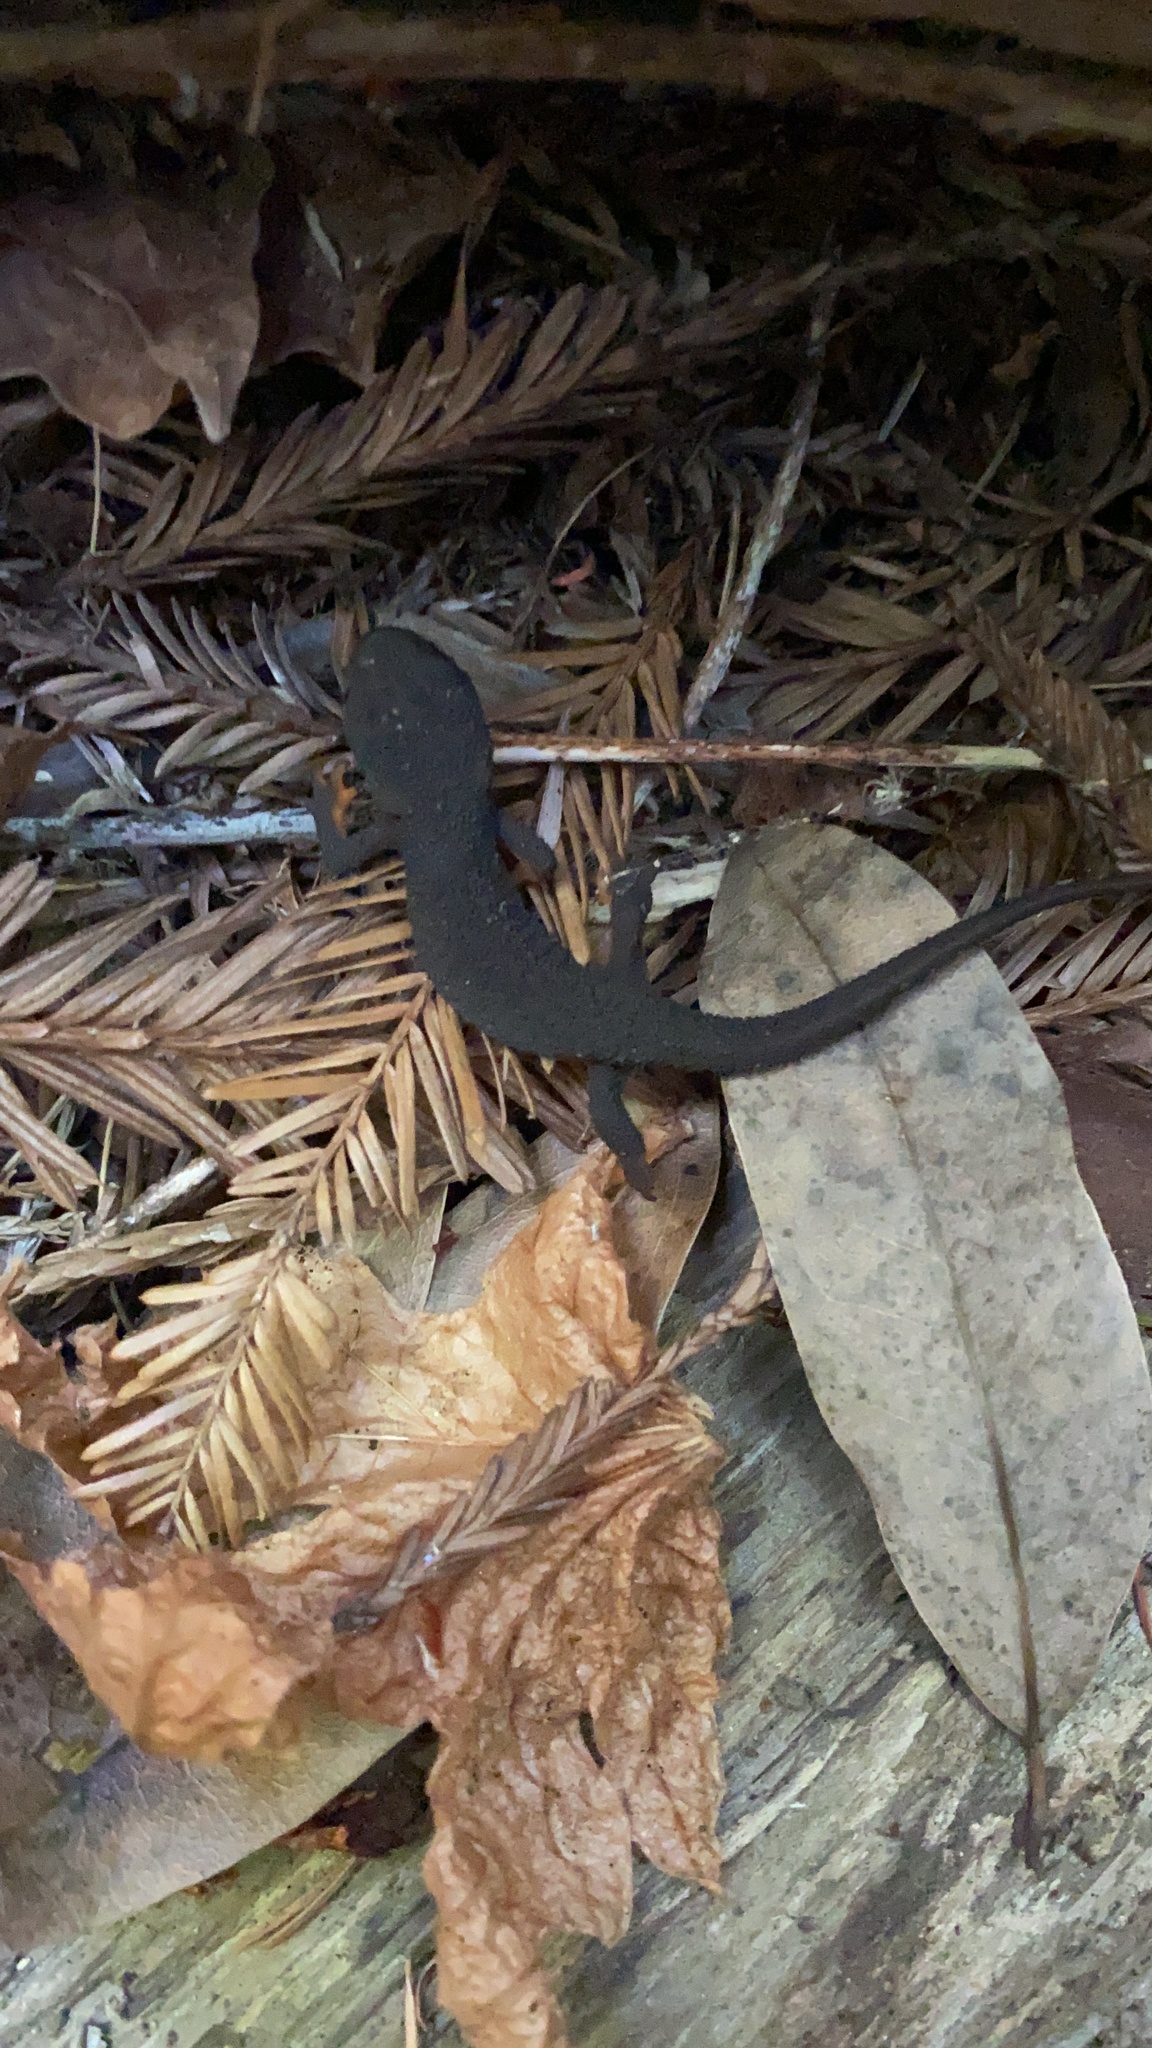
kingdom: Animalia
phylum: Chordata
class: Amphibia
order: Caudata
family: Salamandridae
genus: Taricha
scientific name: Taricha granulosa
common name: Roughskin newt
